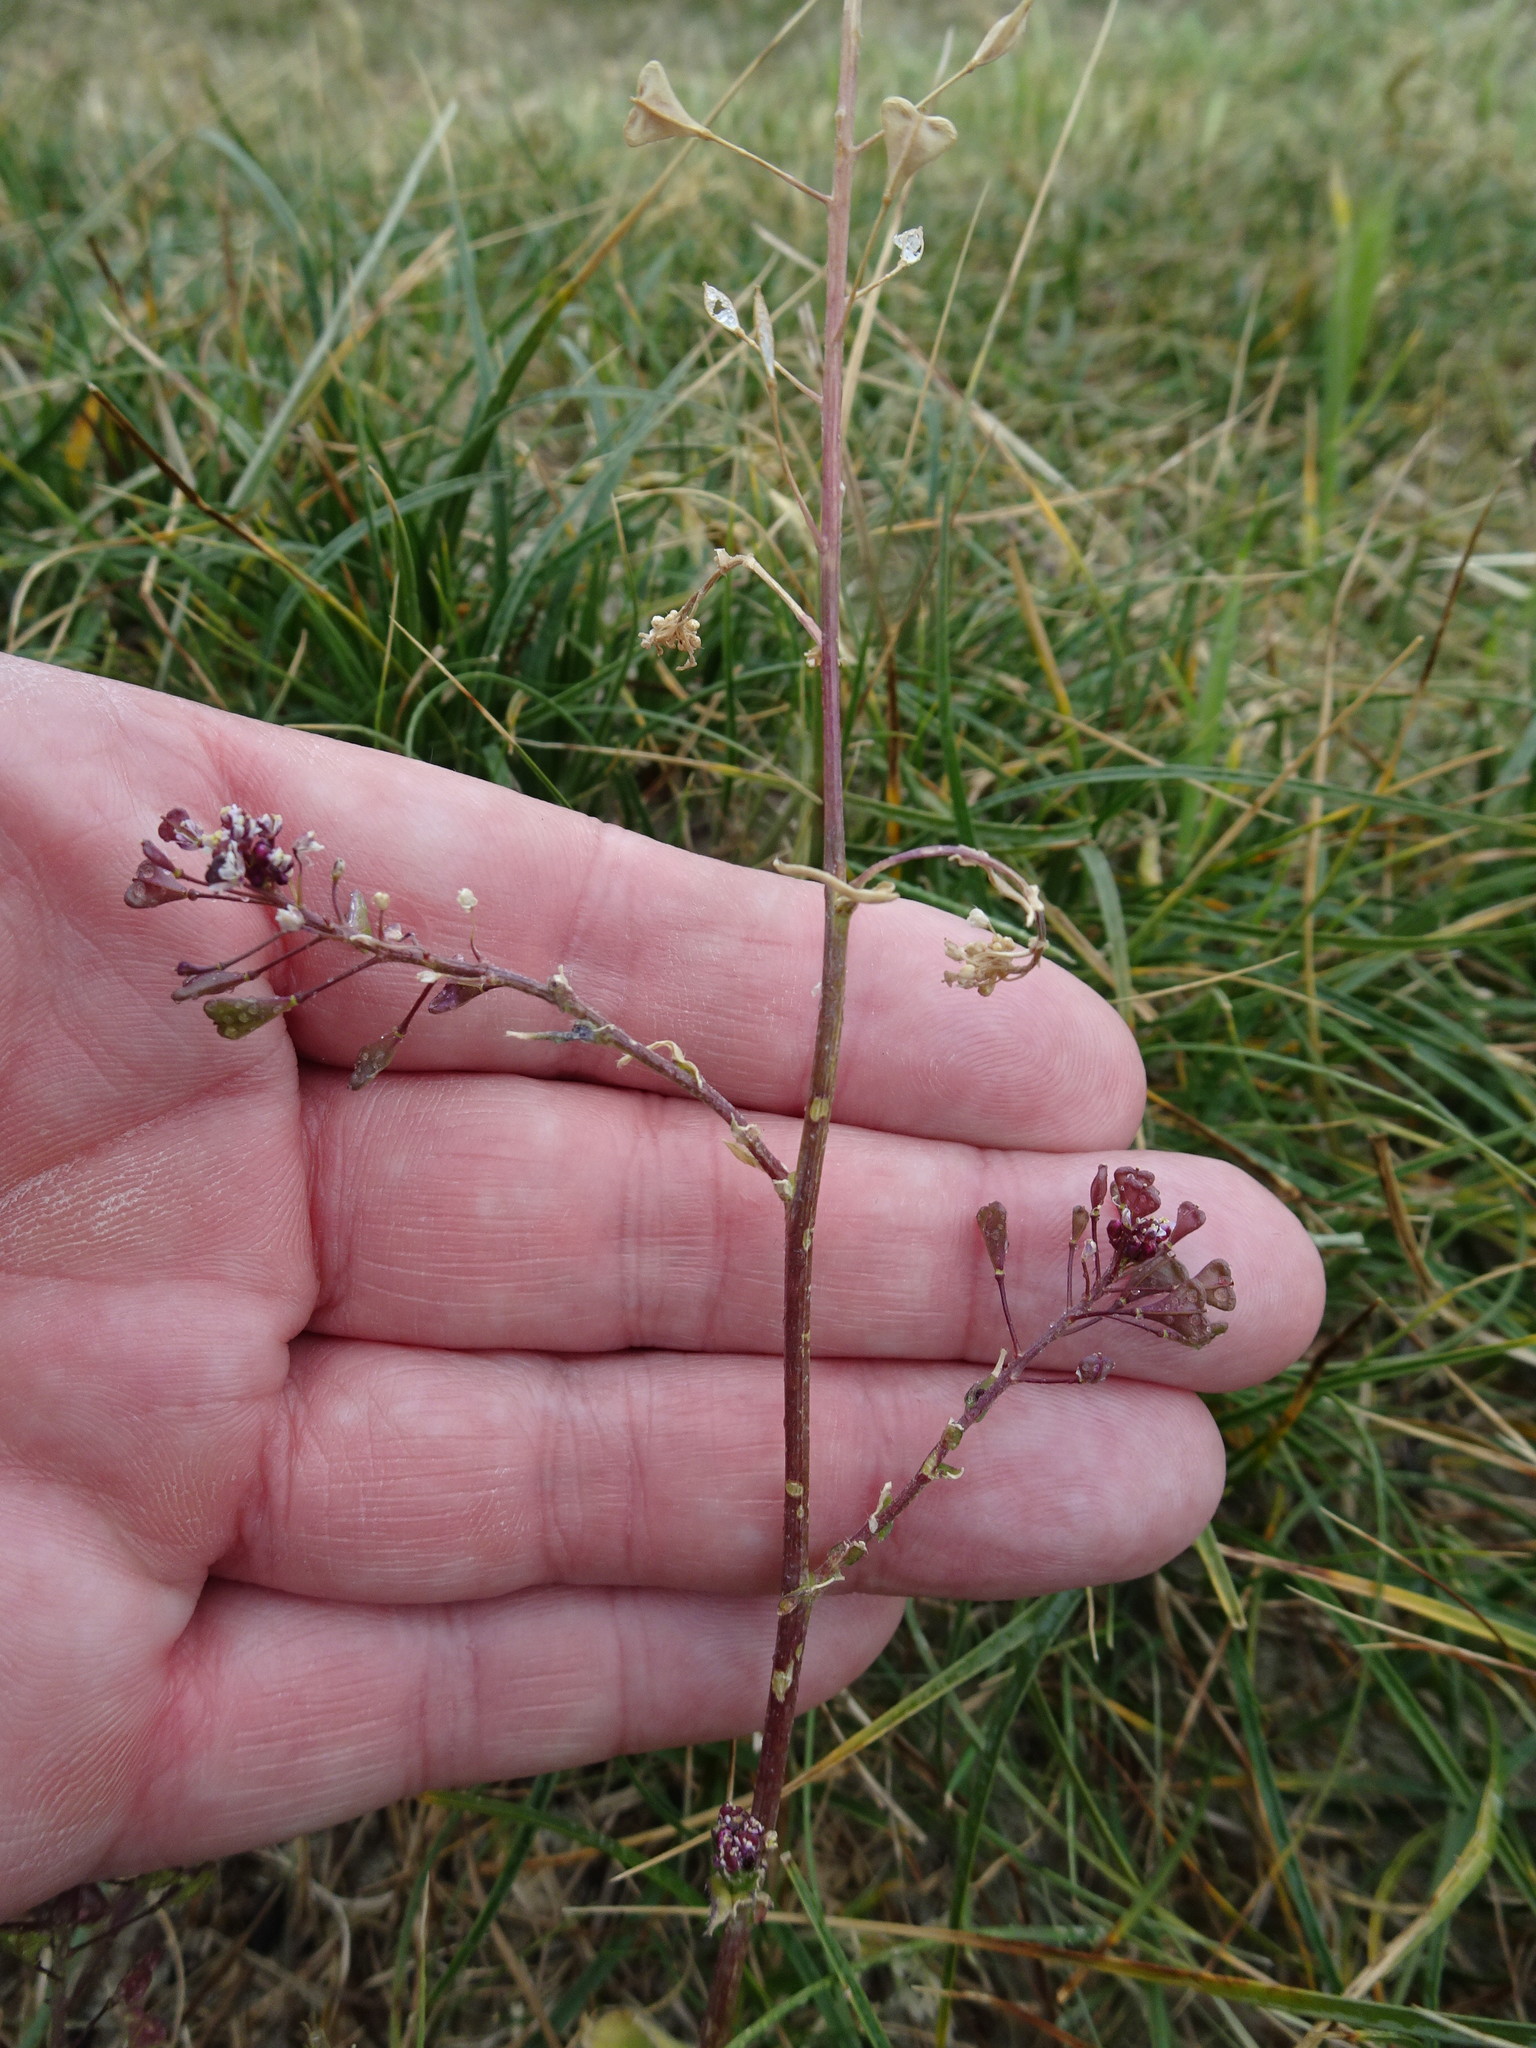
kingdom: Plantae
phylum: Tracheophyta
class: Magnoliopsida
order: Brassicales
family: Brassicaceae
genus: Capsella
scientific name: Capsella bursa-pastoris
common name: Shepherd's purse
